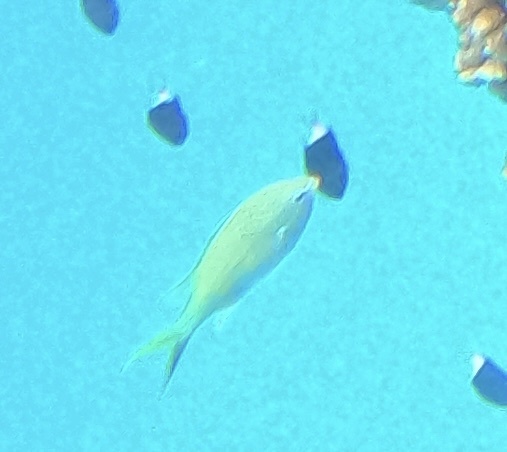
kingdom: Animalia
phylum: Chordata
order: Perciformes
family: Pomacentridae
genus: Chromis
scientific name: Chromis viridis
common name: Blue-green chromis
